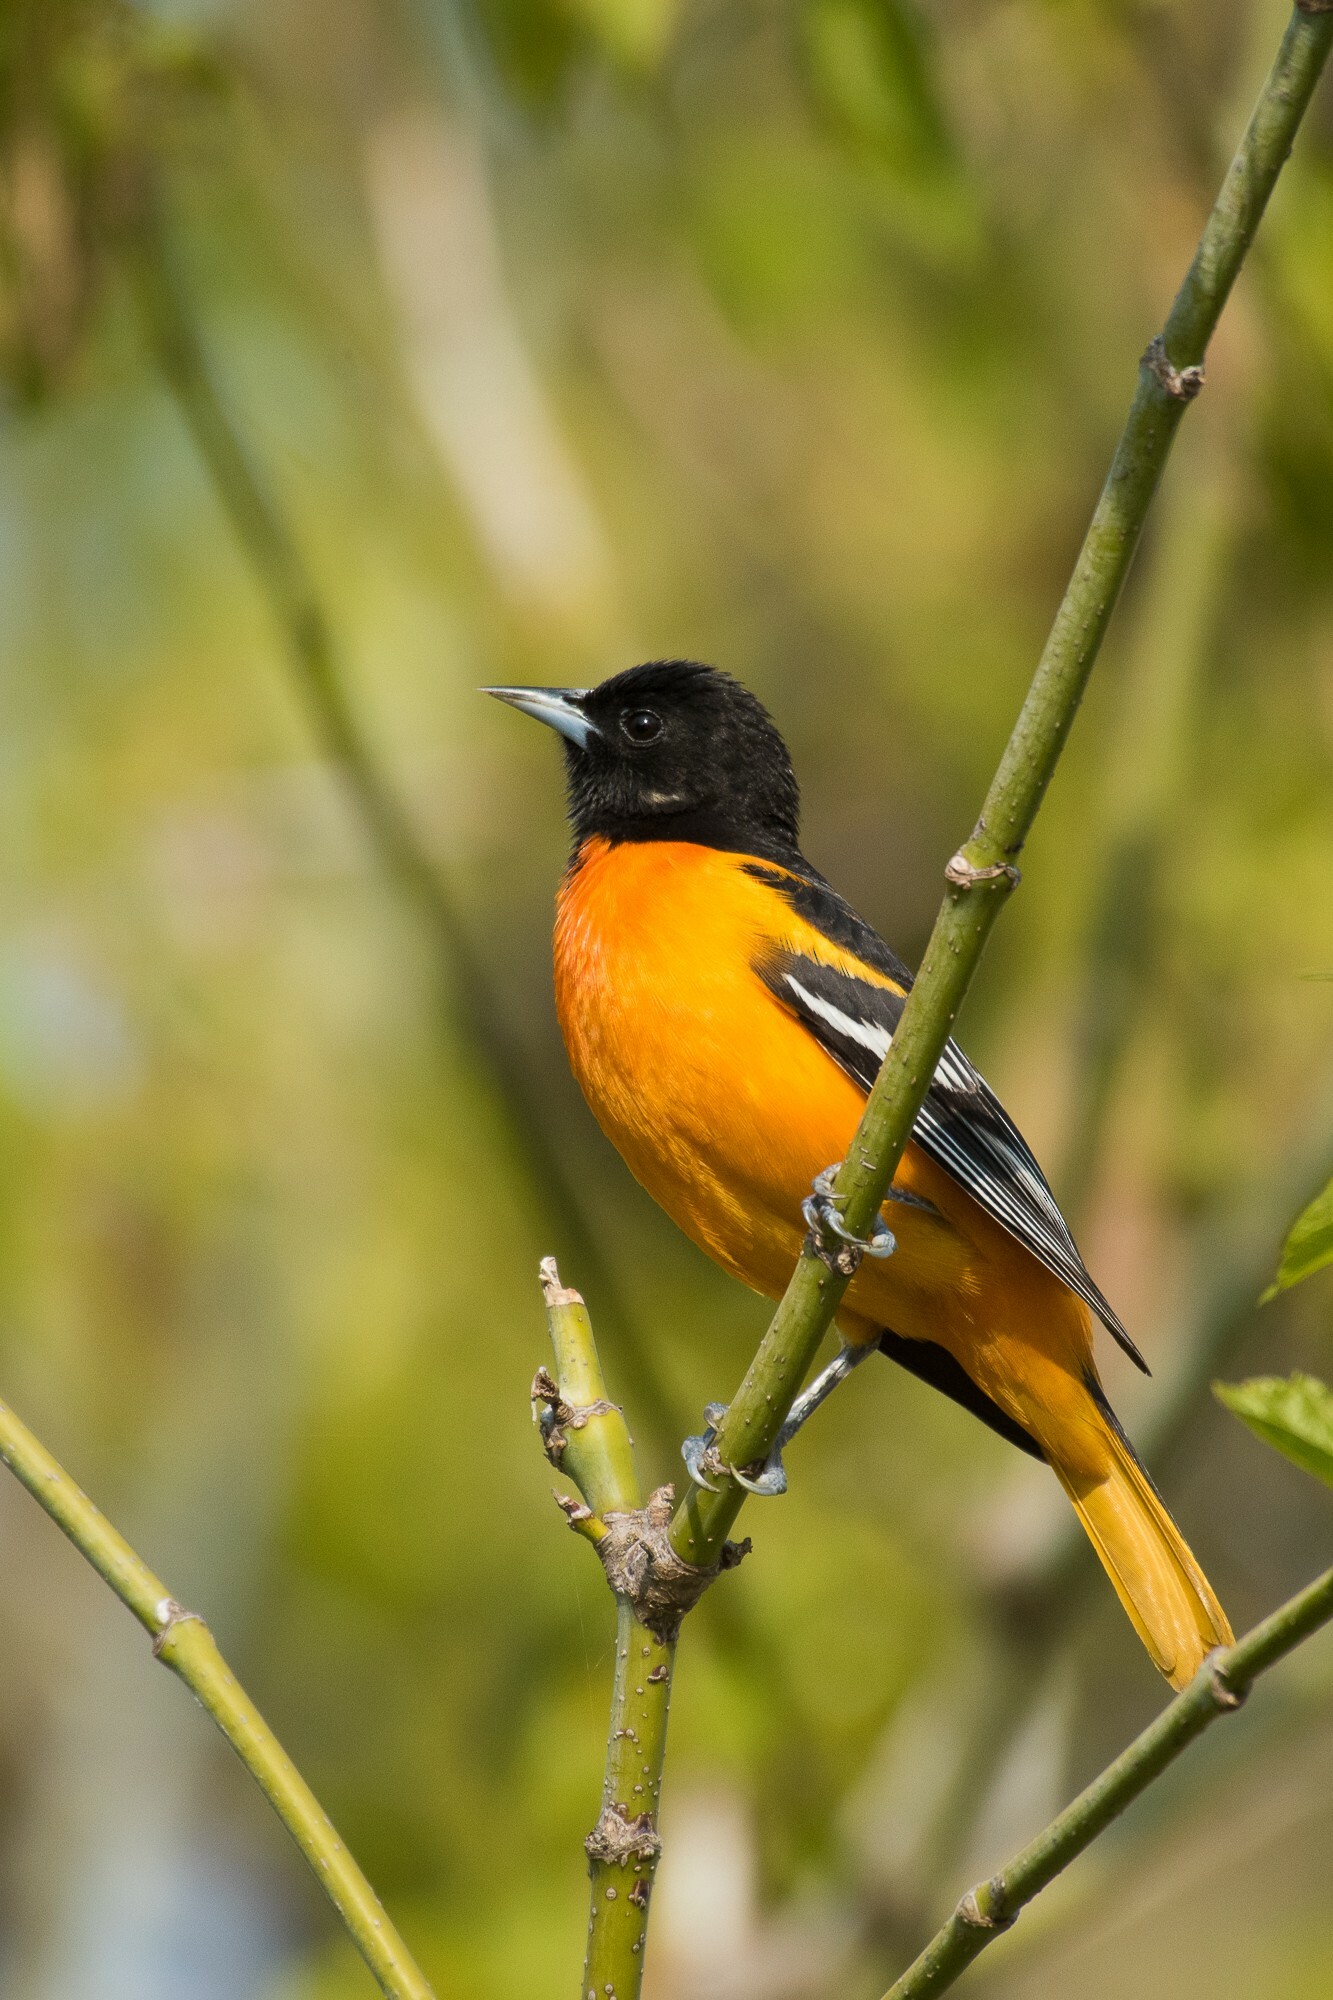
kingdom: Animalia
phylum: Chordata
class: Aves
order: Passeriformes
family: Icteridae
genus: Icterus
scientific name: Icterus galbula
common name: Baltimore oriole
